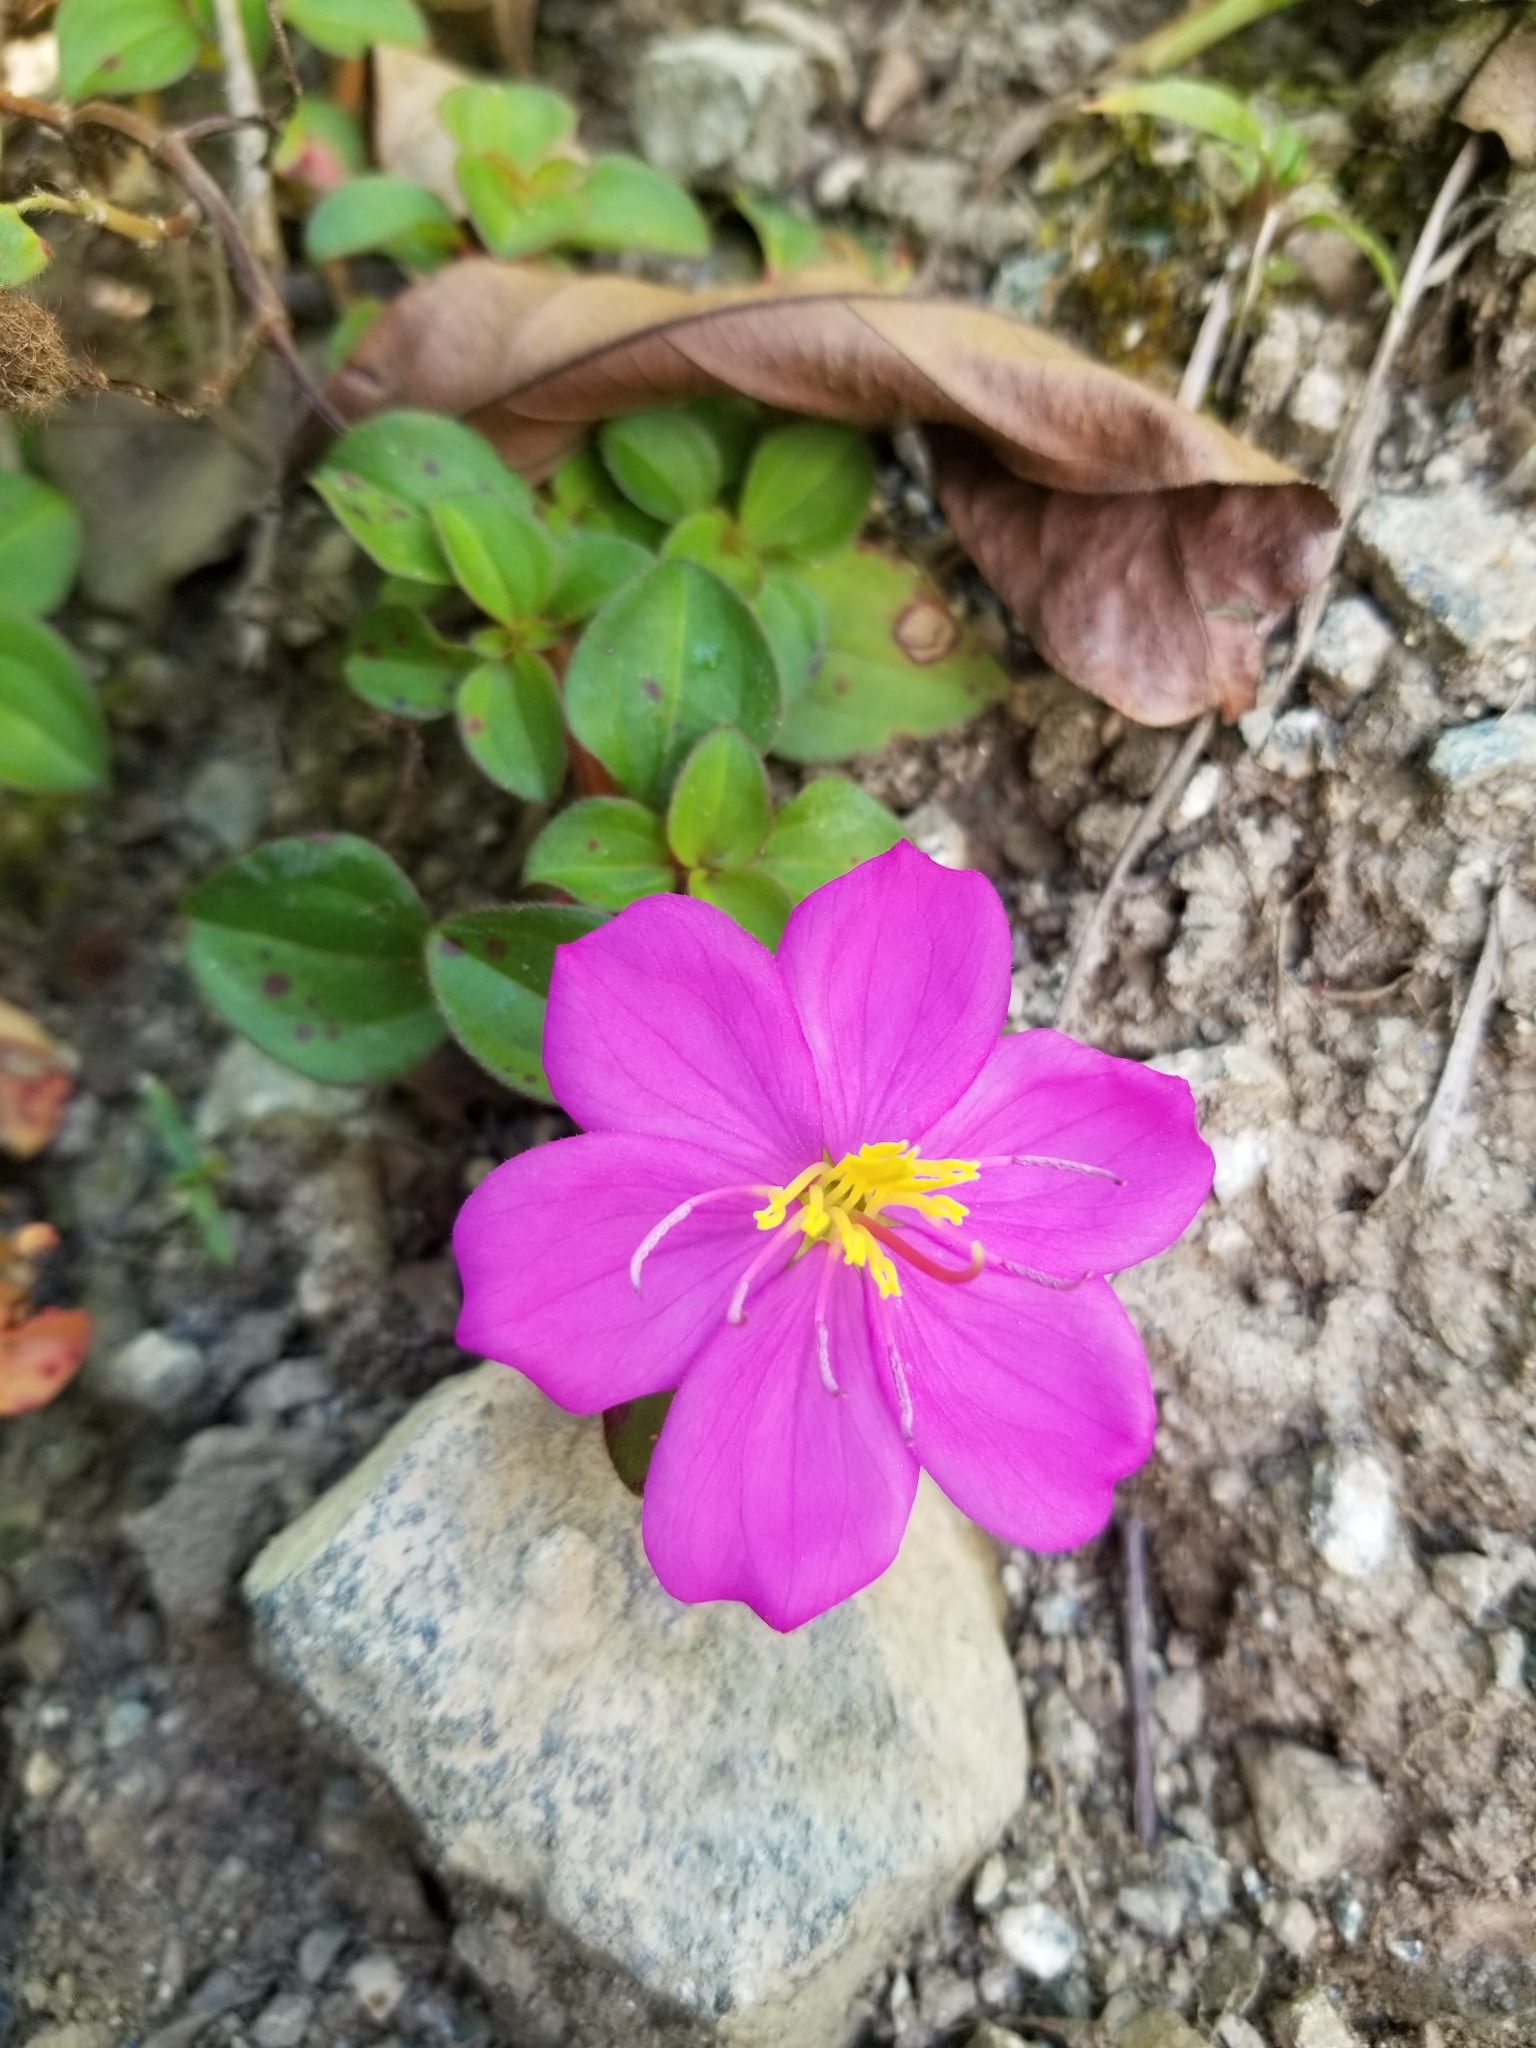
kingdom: Plantae
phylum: Tracheophyta
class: Magnoliopsida
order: Myrtales
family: Melastomataceae
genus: Heterotis
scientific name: Heterotis rotundifolia
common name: Pinklady
